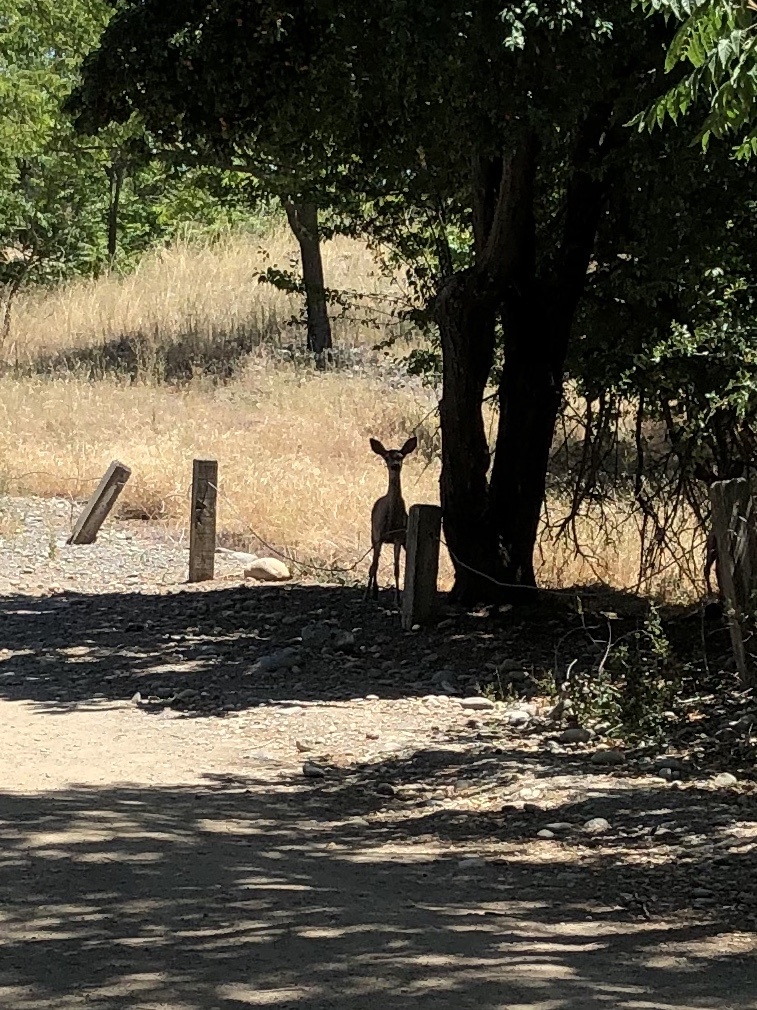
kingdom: Animalia
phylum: Chordata
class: Mammalia
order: Artiodactyla
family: Cervidae
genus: Odocoileus
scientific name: Odocoileus hemionus
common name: Mule deer
